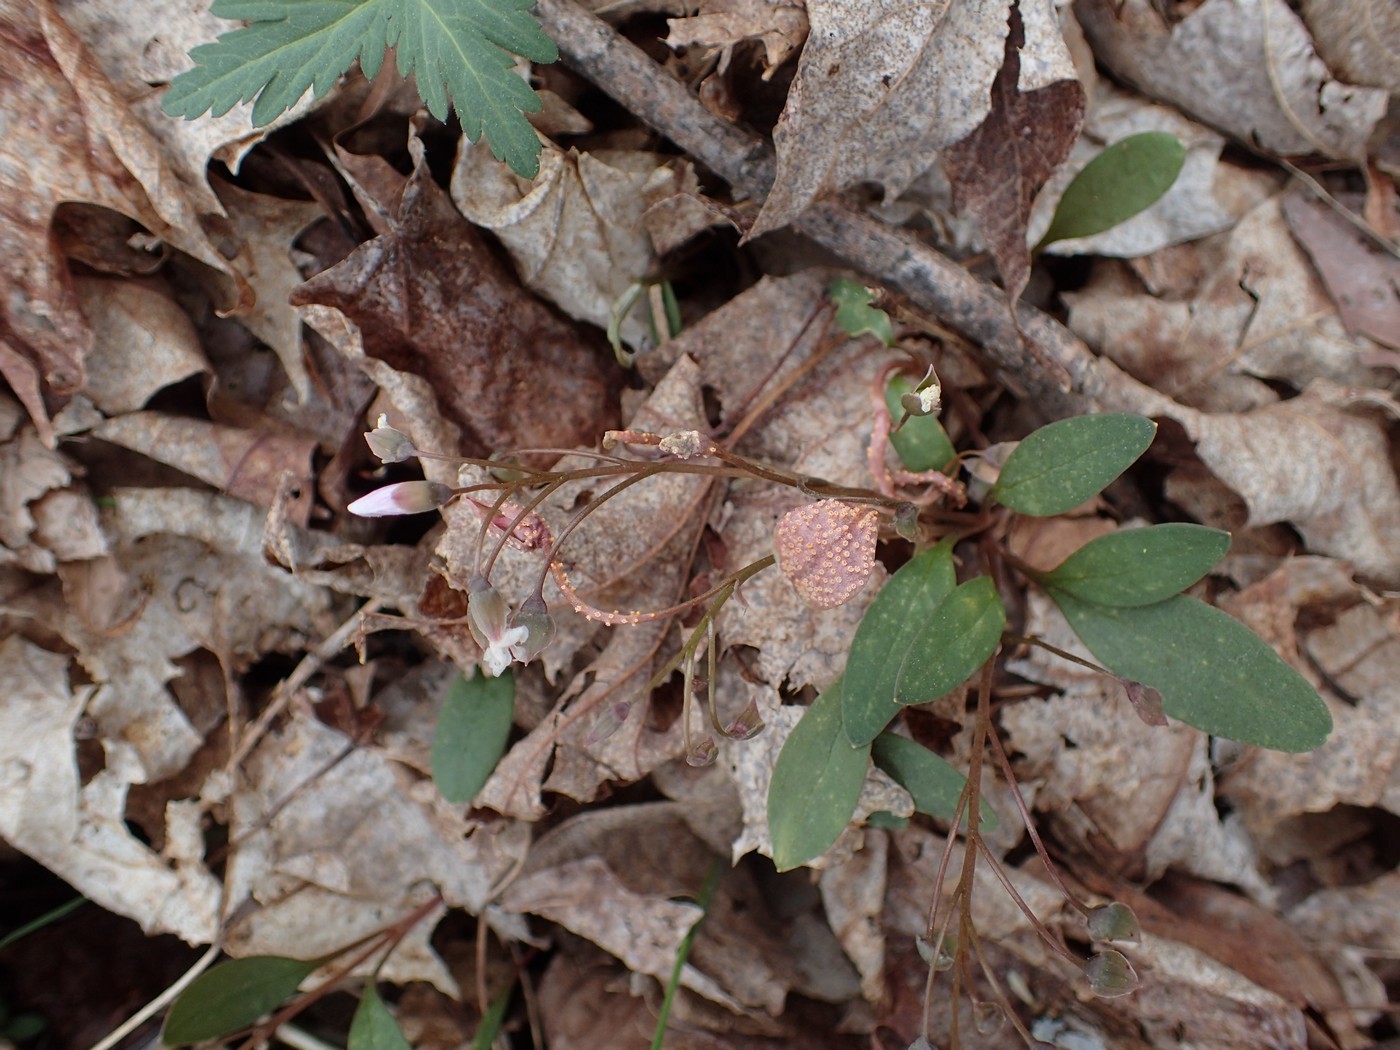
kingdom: Fungi
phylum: Basidiomycota
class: Pucciniomycetes
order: Pucciniales
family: Pucciniaceae
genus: Puccinia
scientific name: Puccinia mariae-wilsoniae
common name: Spring beauty rust
